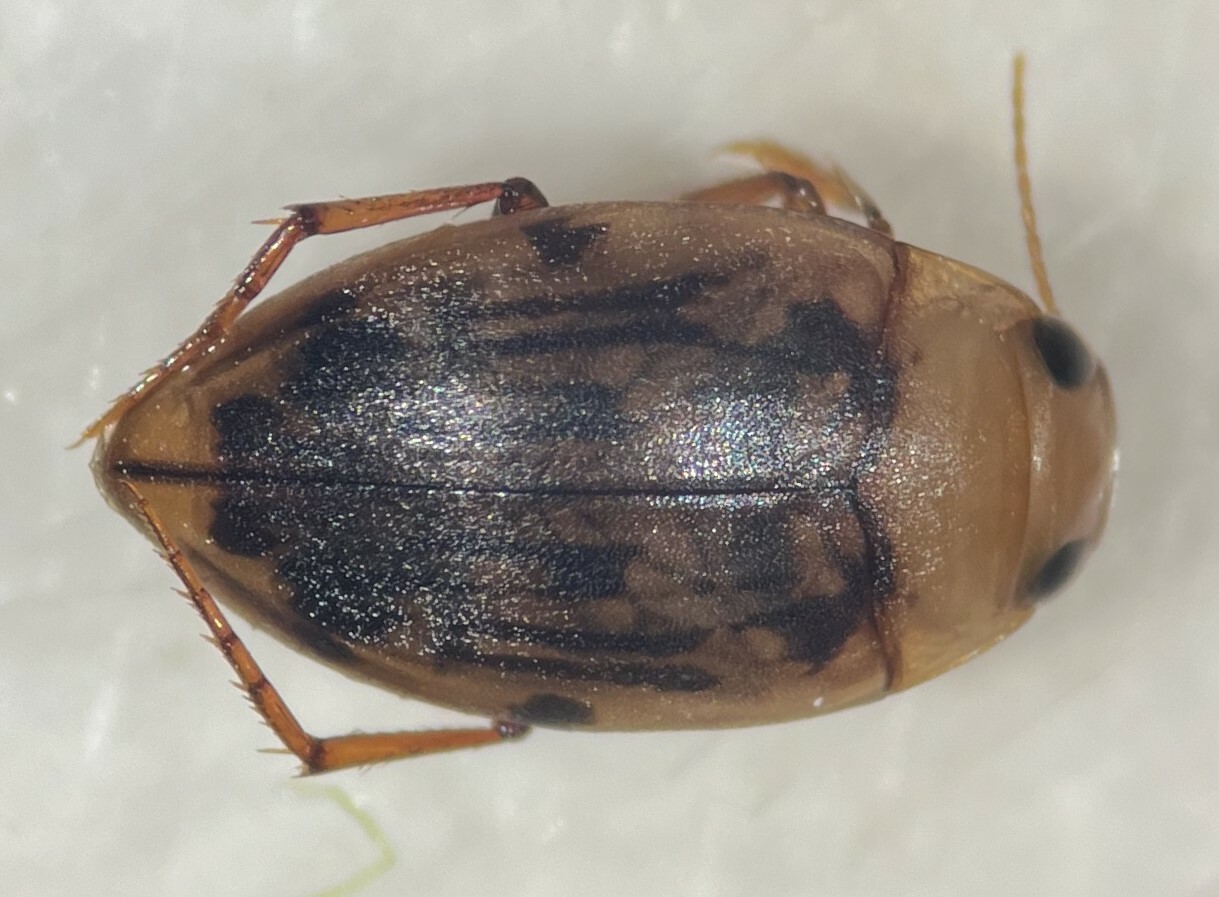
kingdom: Animalia
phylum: Arthropoda
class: Insecta
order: Coleoptera
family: Dytiscidae
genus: Neoporus
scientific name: Neoporus dimidiatus
